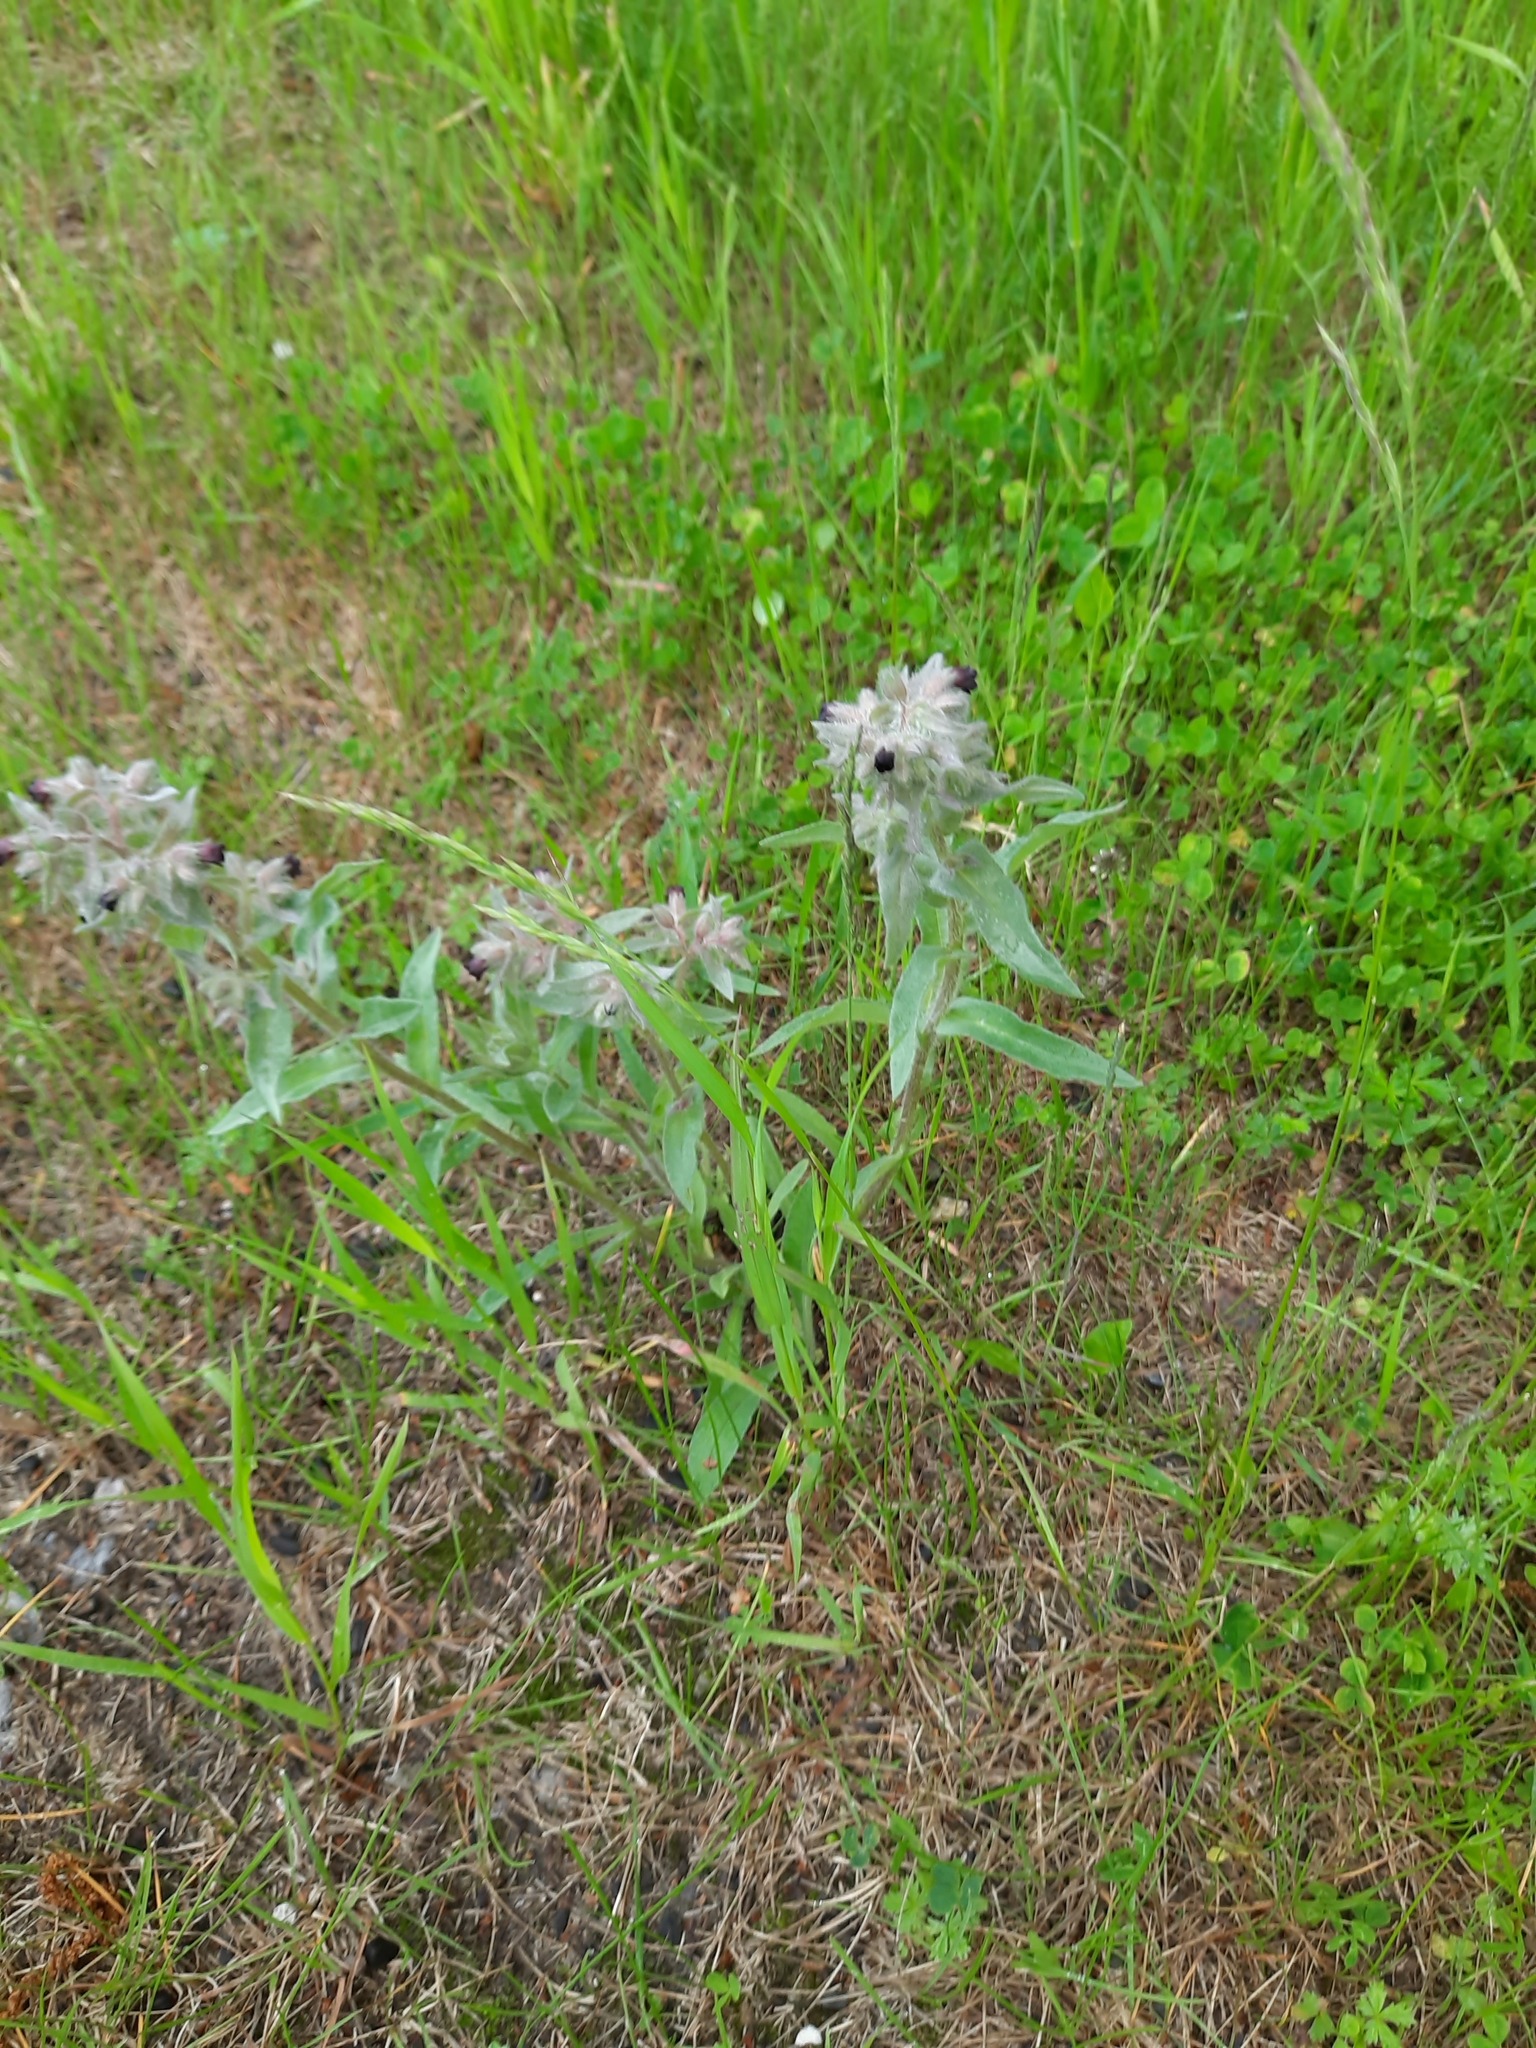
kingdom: Plantae
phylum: Tracheophyta
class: Magnoliopsida
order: Boraginales
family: Boraginaceae
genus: Nonea
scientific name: Nonea pulla
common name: Brown nonea
